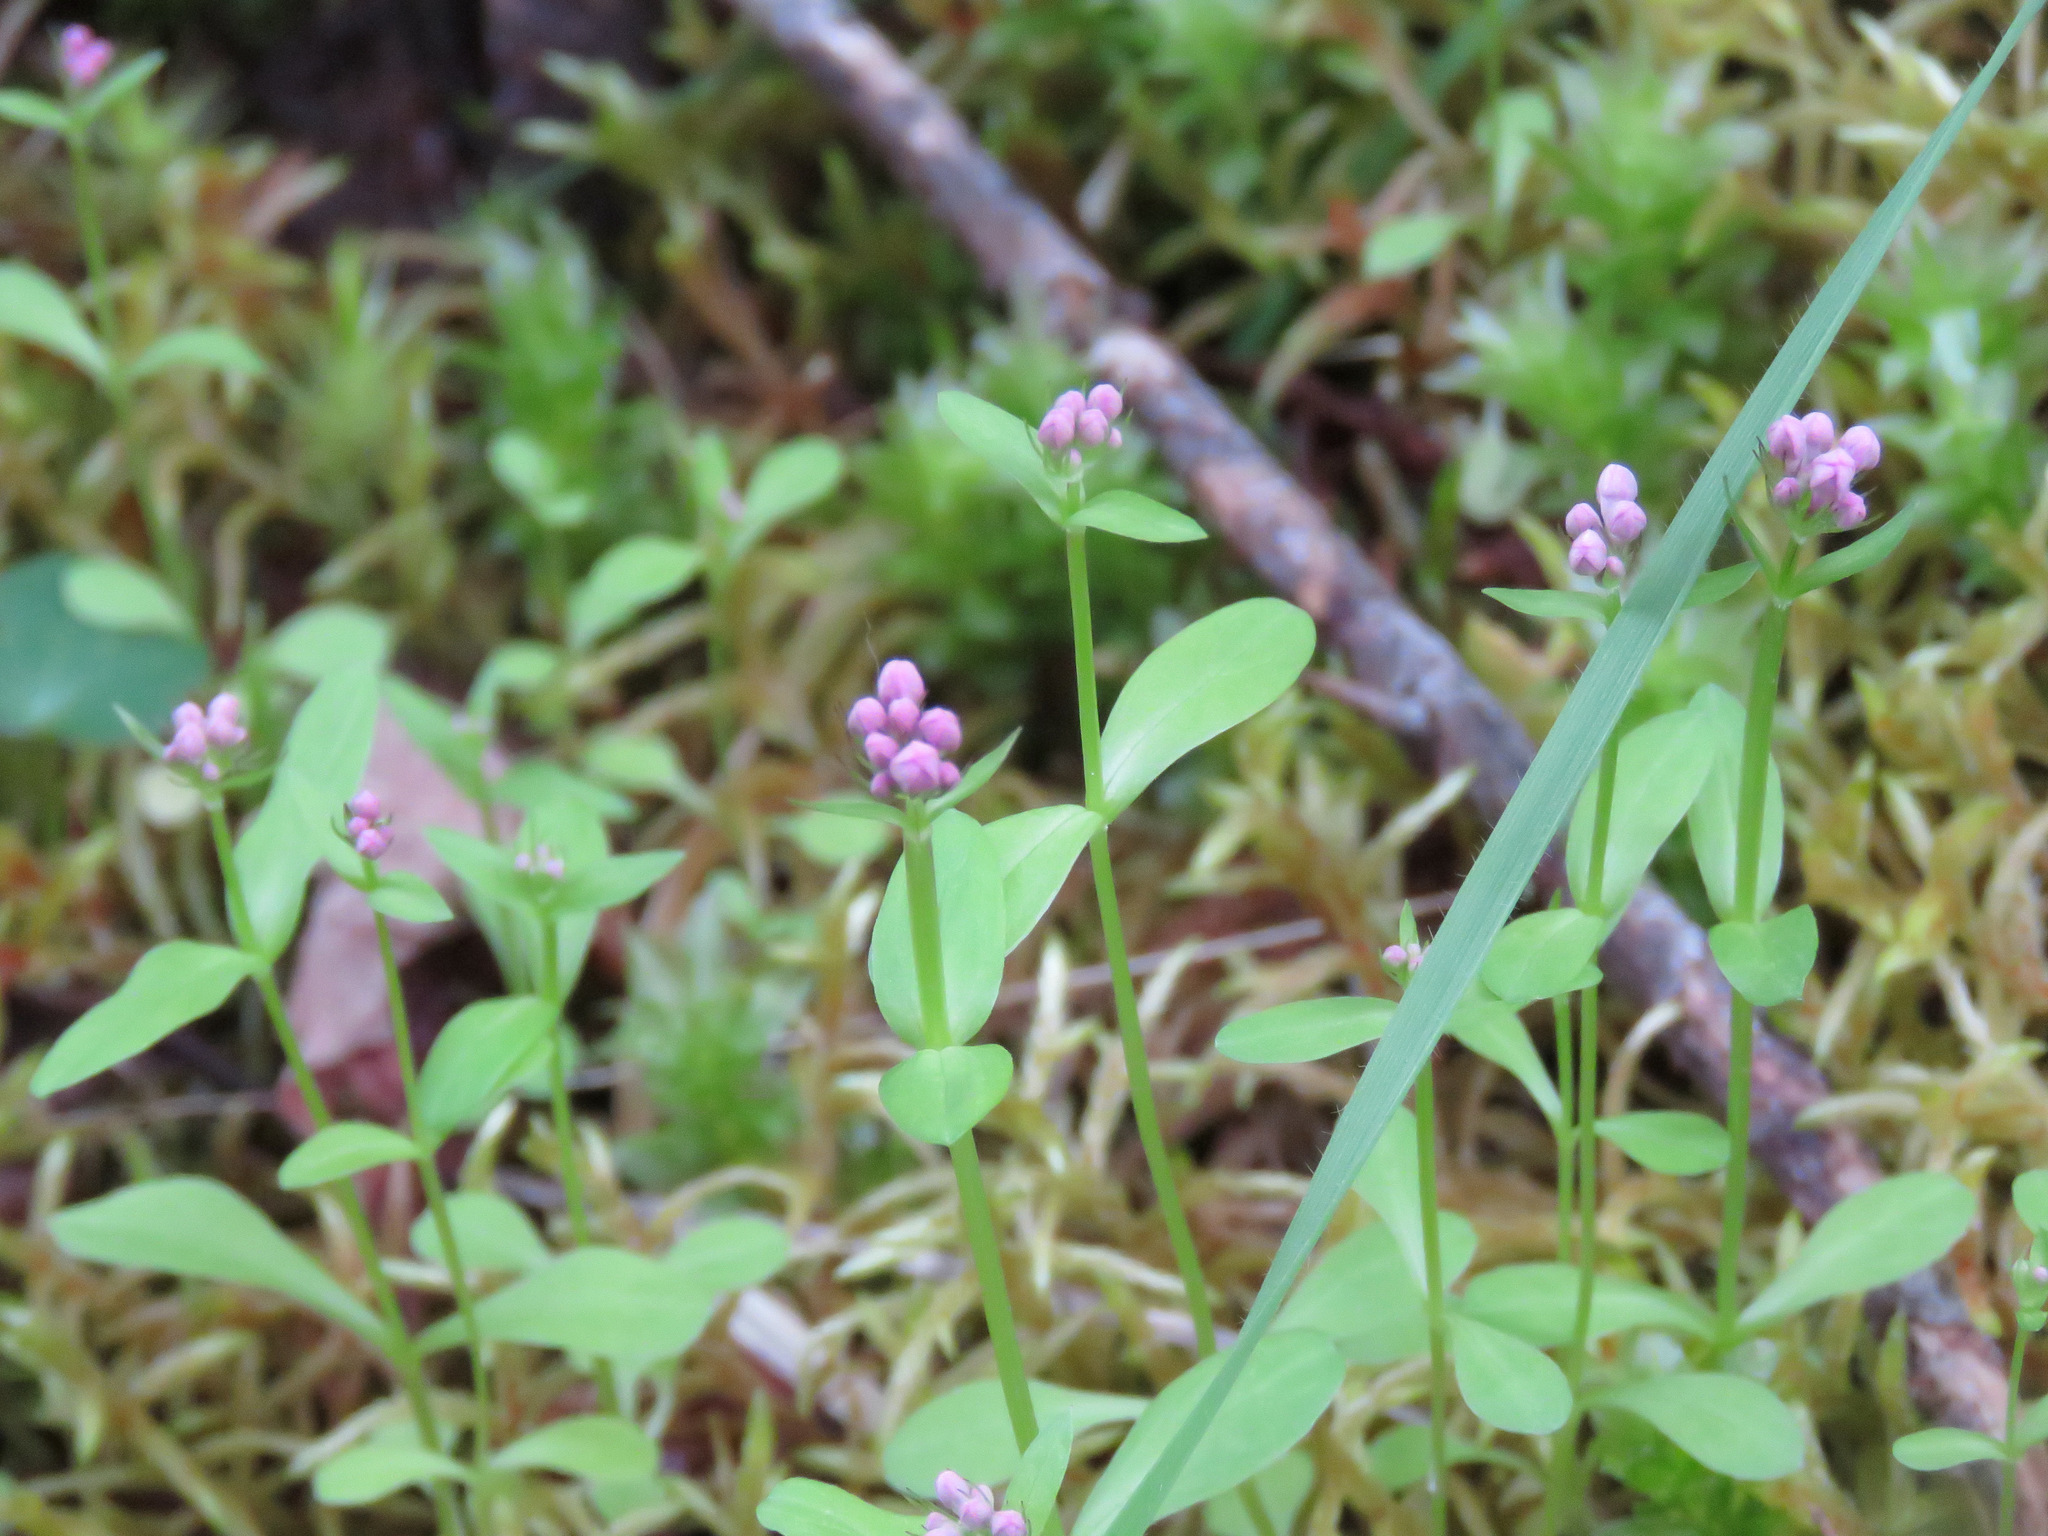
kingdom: Plantae
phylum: Tracheophyta
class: Magnoliopsida
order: Dipsacales
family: Caprifoliaceae
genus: Plectritis
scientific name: Plectritis congesta
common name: Pink plectritis
